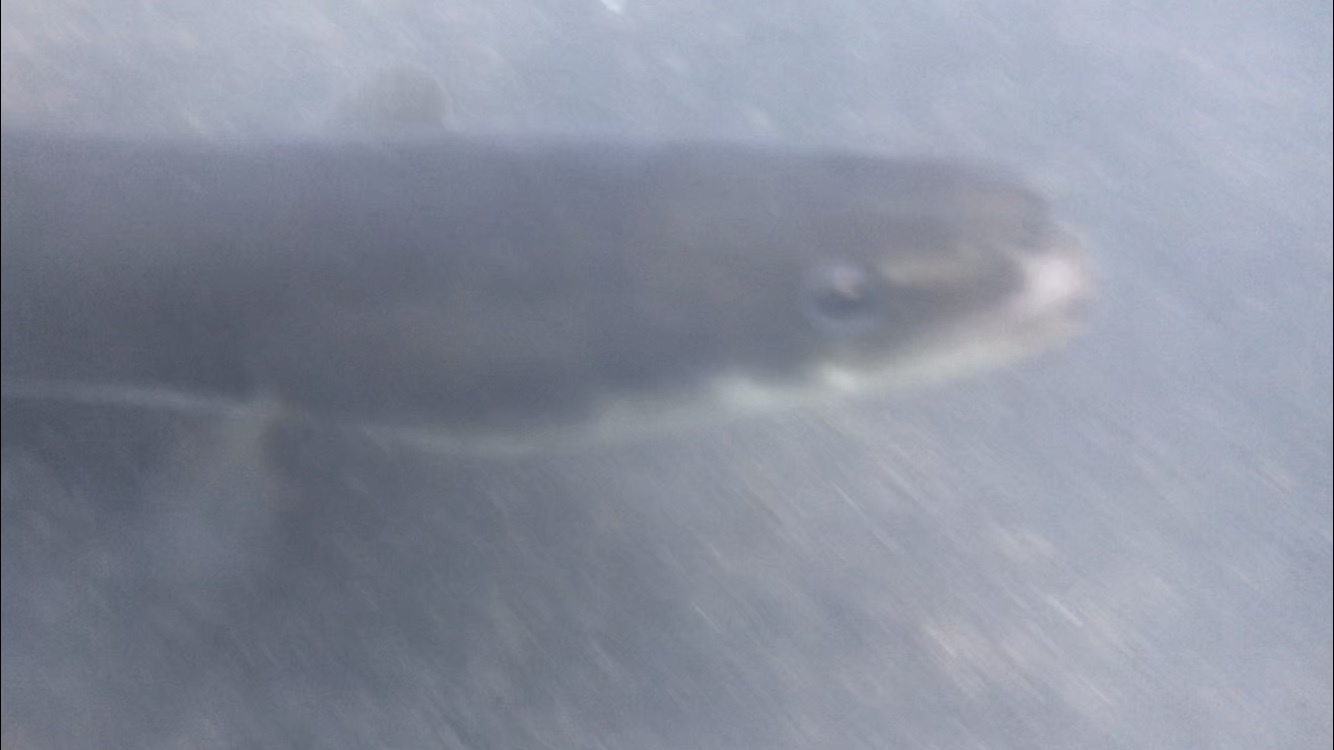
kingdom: Animalia
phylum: Chordata
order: Anguilliformes
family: Anguillidae
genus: Anguilla
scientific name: Anguilla rostrata
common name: American eel
